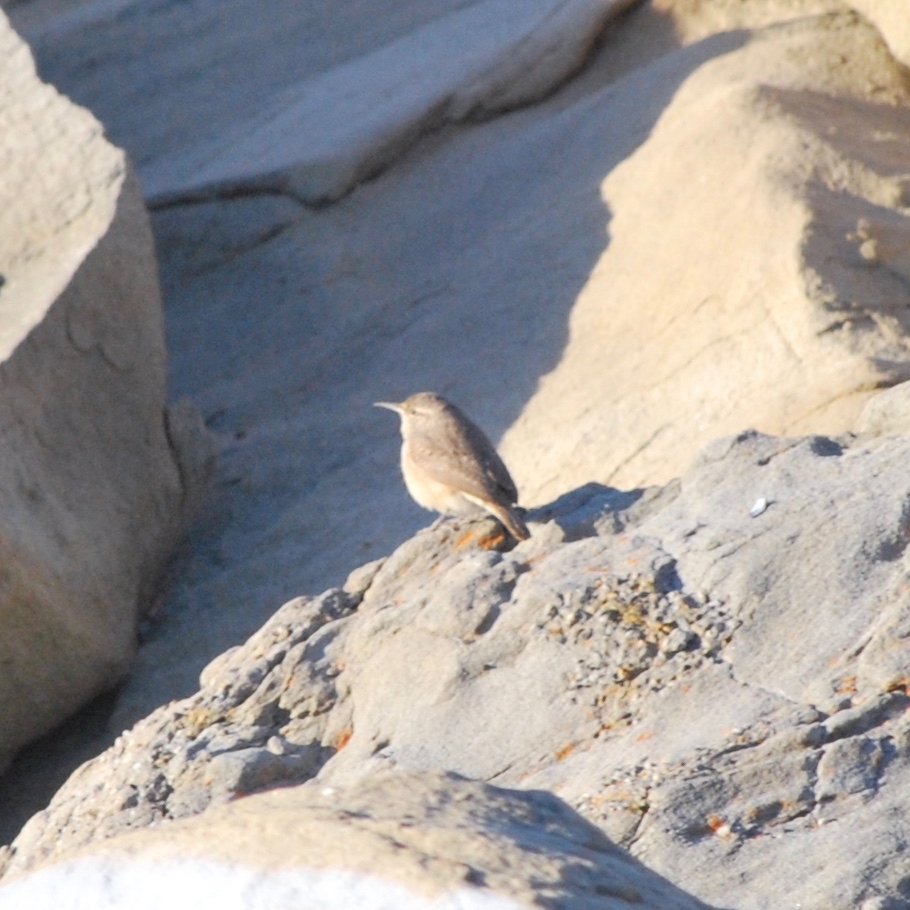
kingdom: Animalia
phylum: Chordata
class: Aves
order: Passeriformes
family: Troglodytidae
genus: Salpinctes
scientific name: Salpinctes obsoletus
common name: Rock wren
